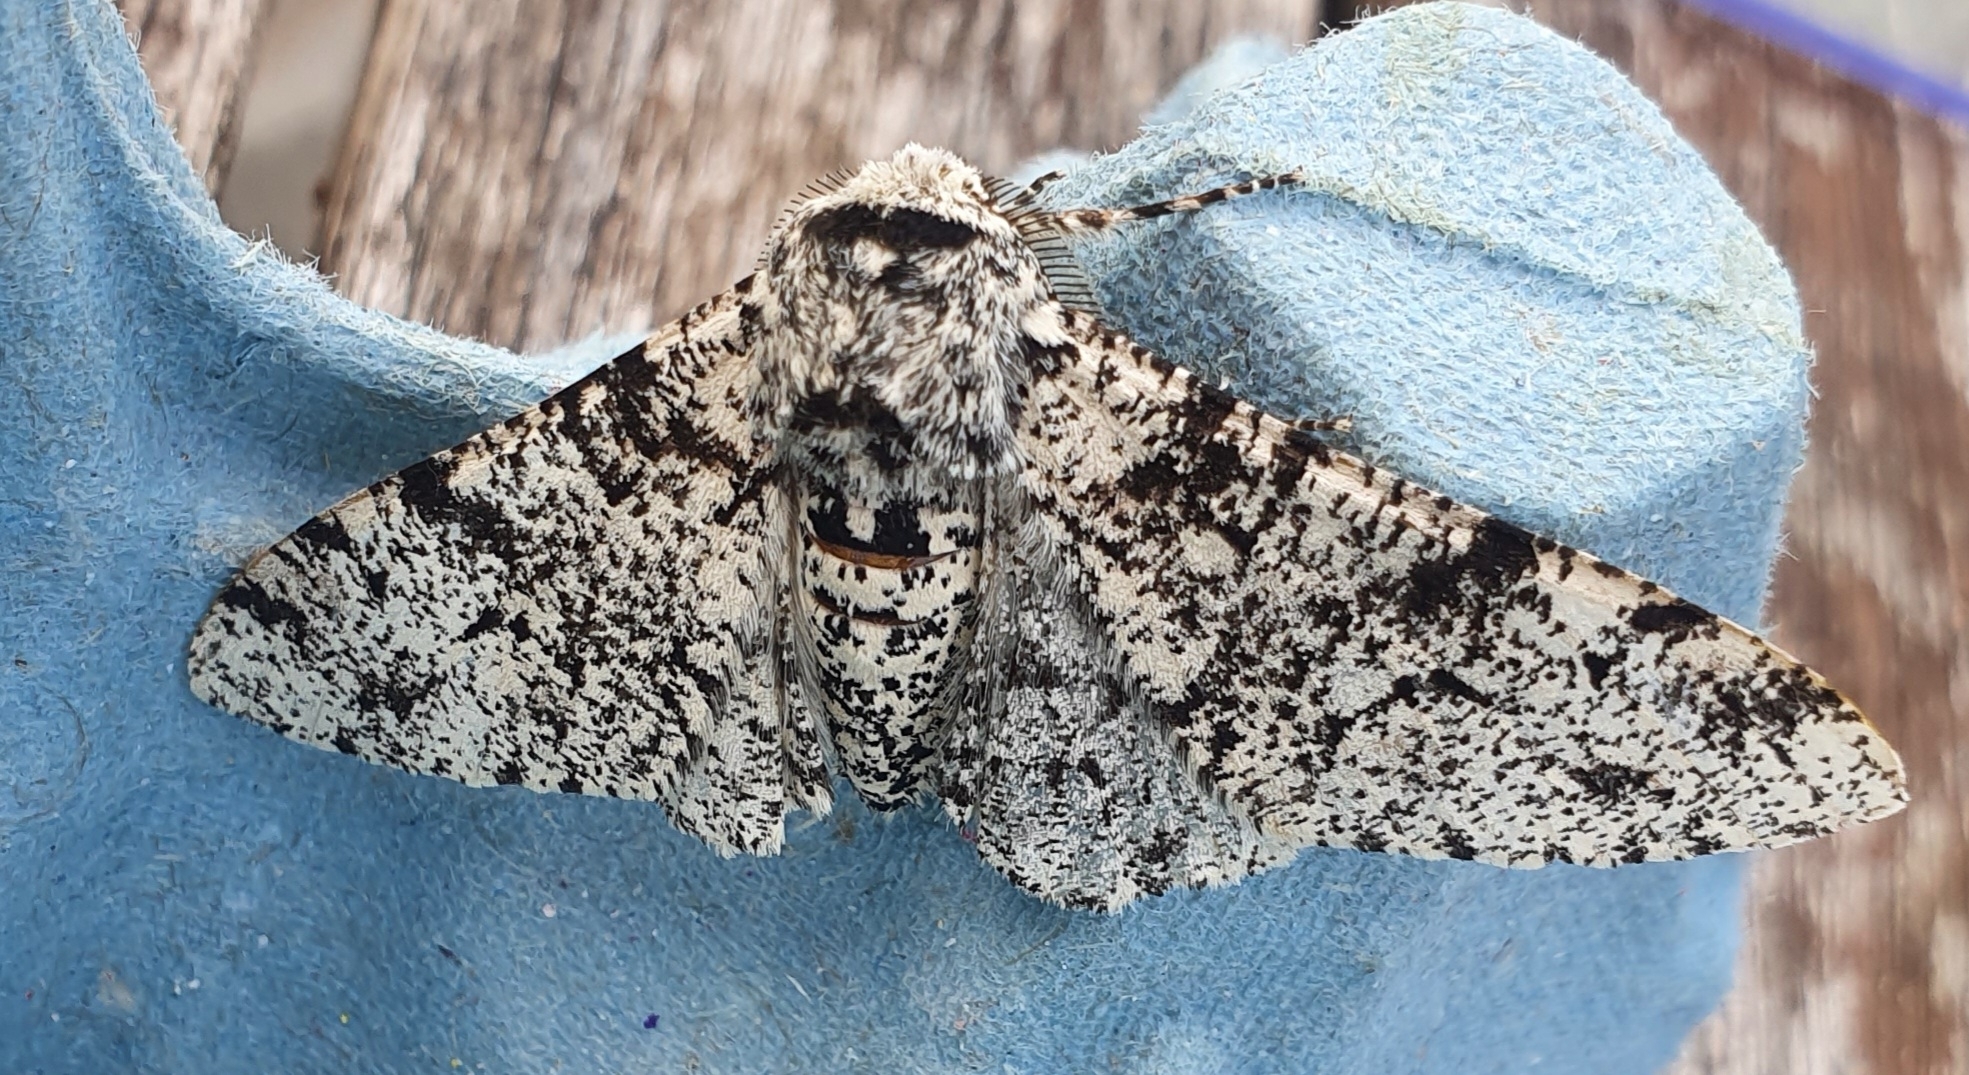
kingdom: Animalia
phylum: Arthropoda
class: Insecta
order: Lepidoptera
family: Geometridae
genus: Biston
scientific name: Biston betularia
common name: Peppered moth
